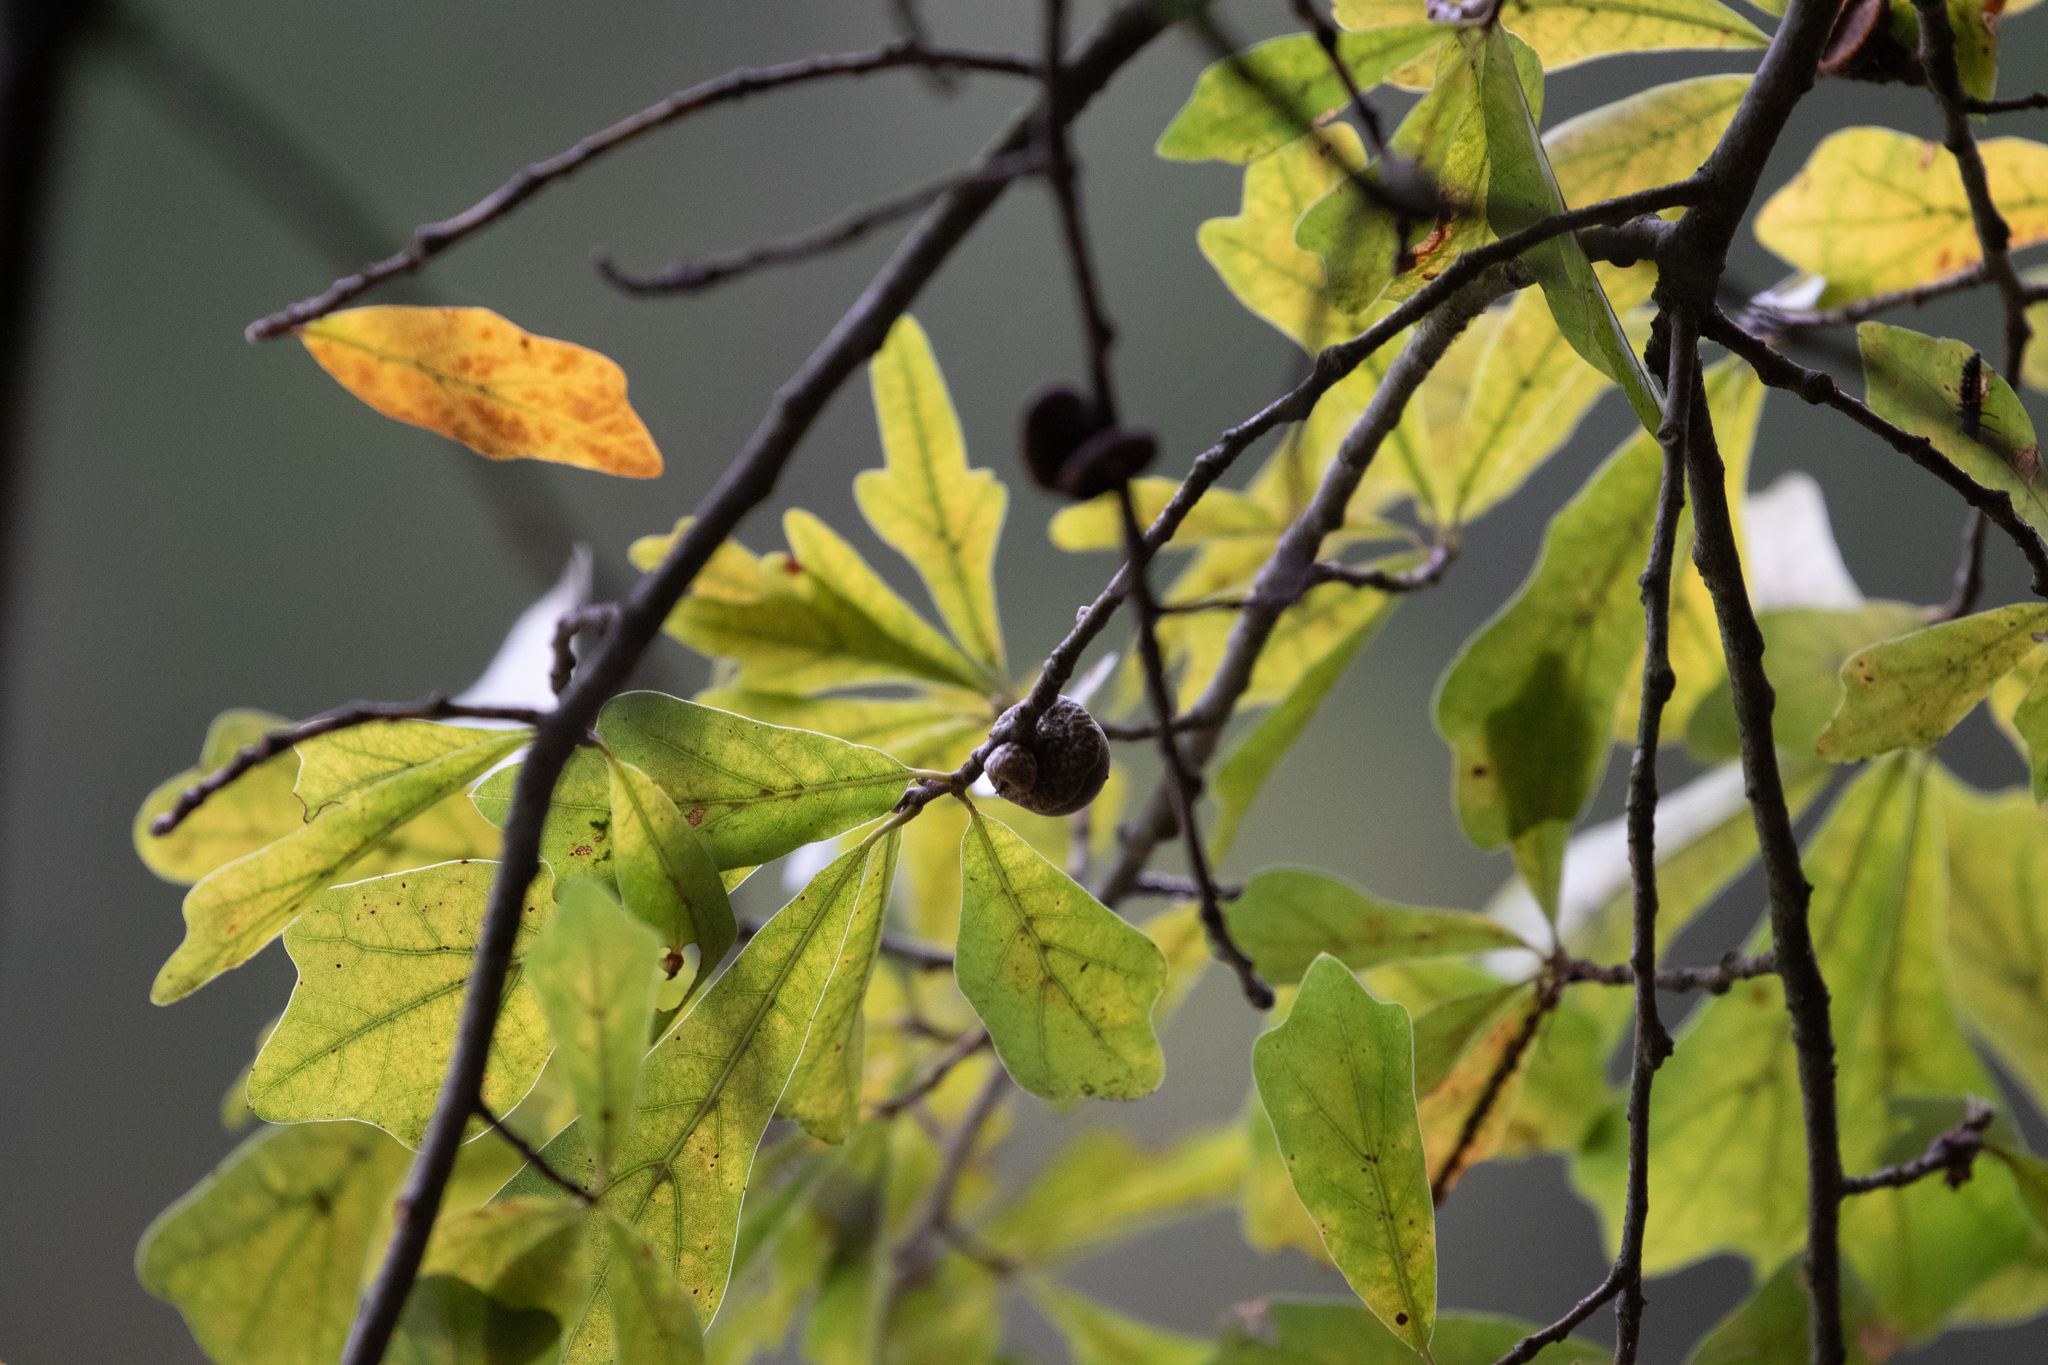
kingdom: Plantae
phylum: Tracheophyta
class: Magnoliopsida
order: Fagales
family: Fagaceae
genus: Quercus
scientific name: Quercus nigra
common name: Water oak
